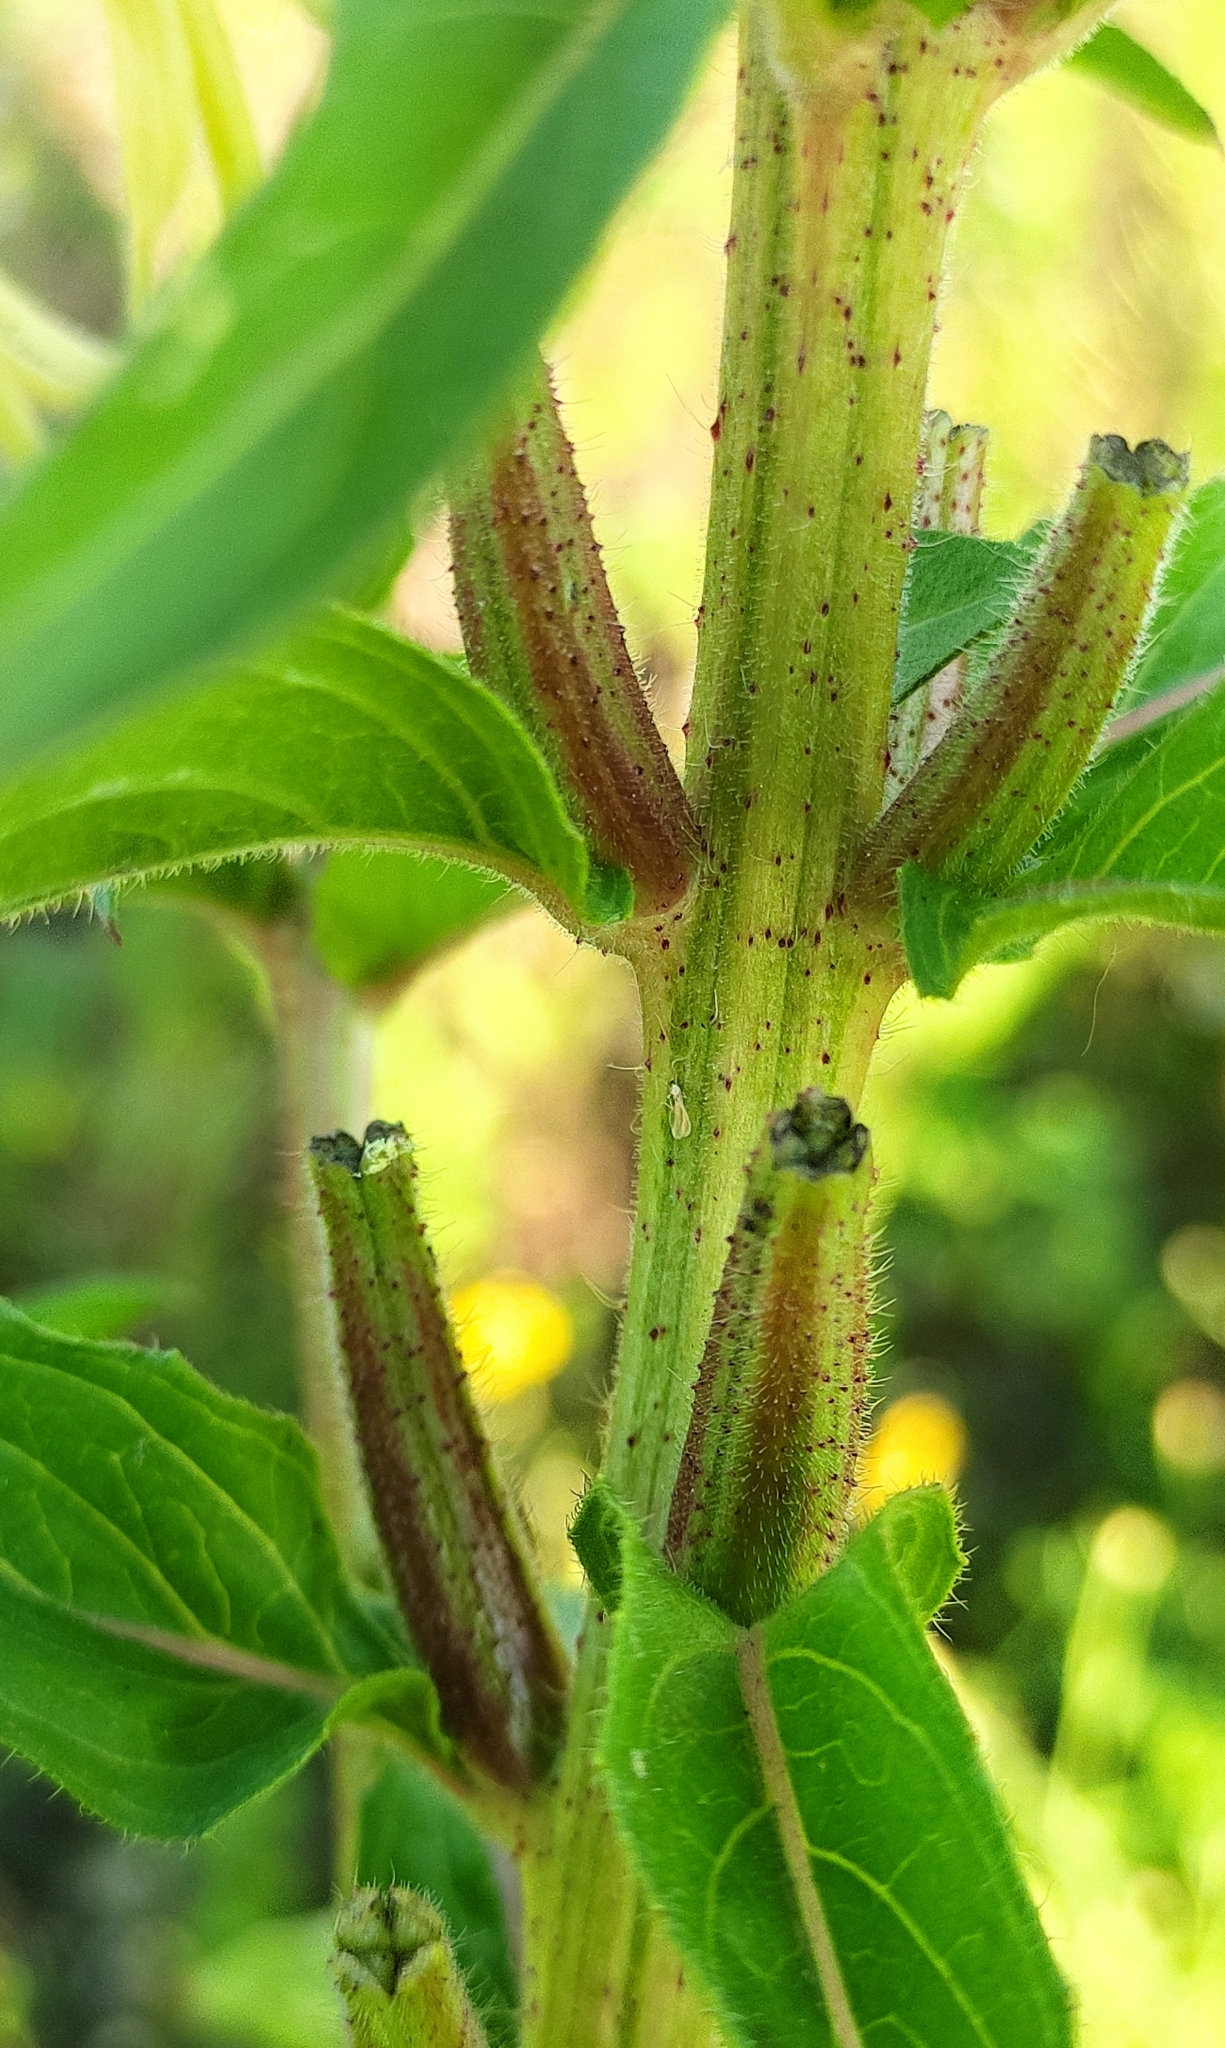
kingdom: Plantae
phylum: Tracheophyta
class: Magnoliopsida
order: Myrtales
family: Onagraceae
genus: Oenothera
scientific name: Oenothera rubricaulis
